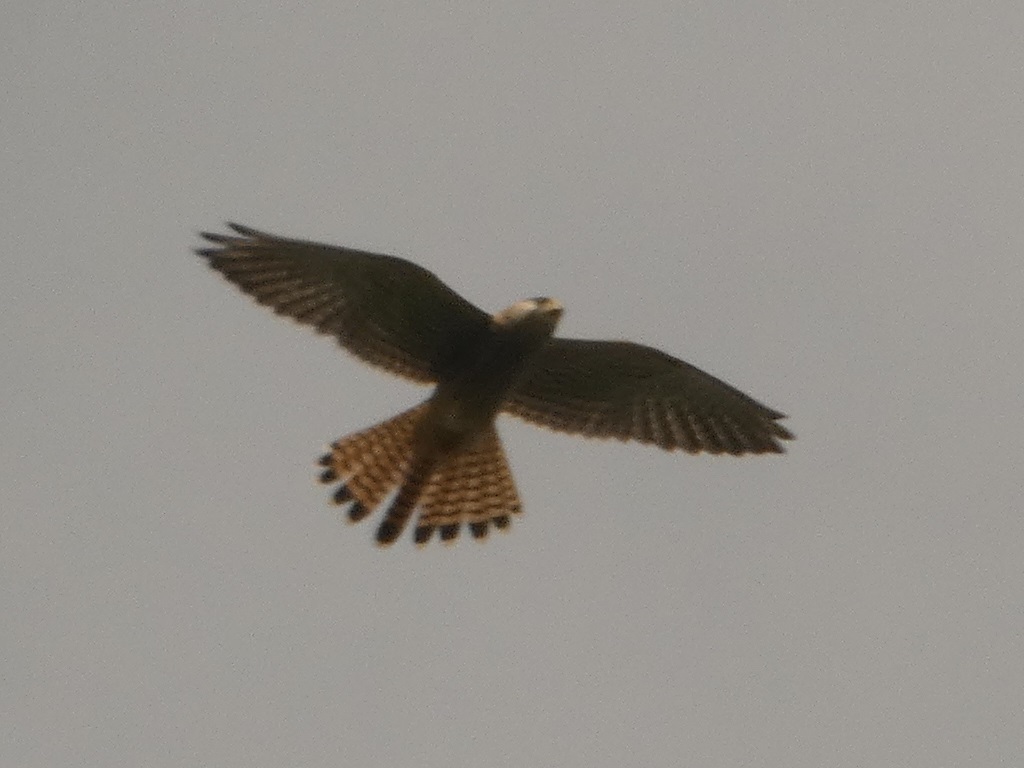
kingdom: Animalia
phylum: Chordata
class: Aves
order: Falconiformes
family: Falconidae
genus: Falco
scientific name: Falco tinnunculus
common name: Common kestrel
